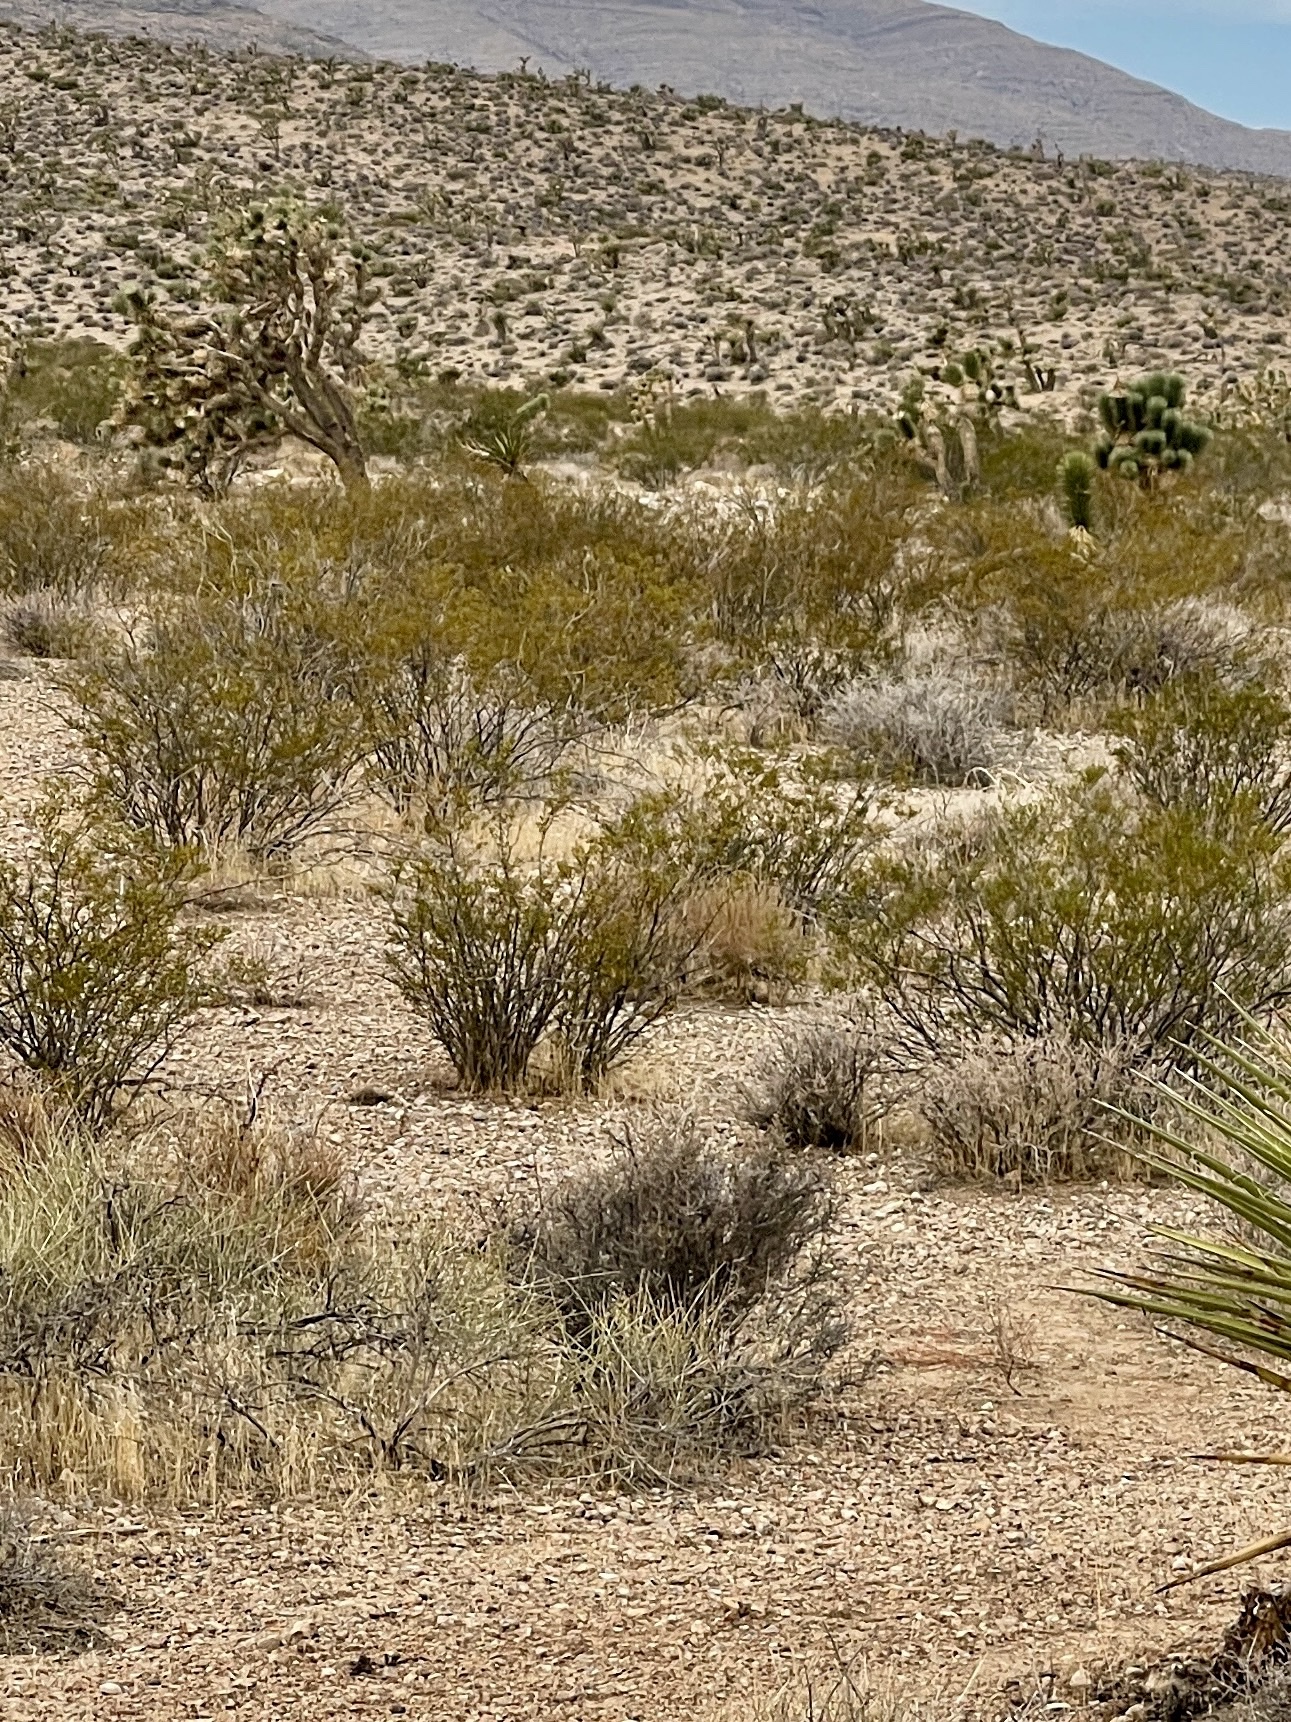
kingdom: Plantae
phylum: Tracheophyta
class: Magnoliopsida
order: Zygophyllales
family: Zygophyllaceae
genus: Larrea
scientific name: Larrea tridentata
